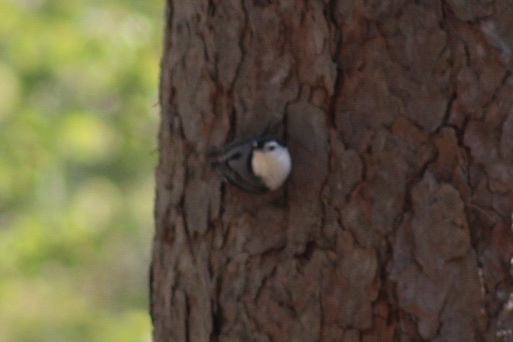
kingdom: Animalia
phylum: Chordata
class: Aves
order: Passeriformes
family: Sittidae
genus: Sitta
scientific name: Sitta carolinensis
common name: White-breasted nuthatch
